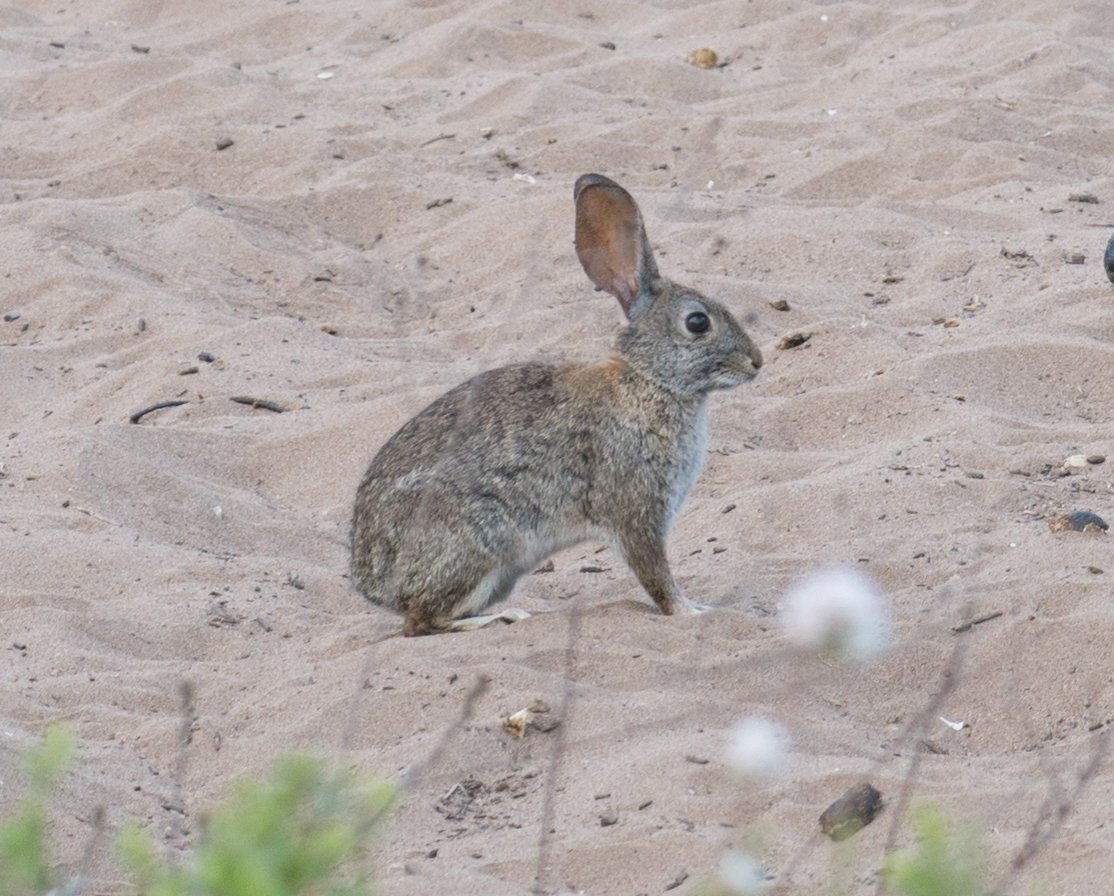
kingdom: Animalia
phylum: Chordata
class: Mammalia
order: Lagomorpha
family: Leporidae
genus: Sylvilagus
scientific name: Sylvilagus audubonii
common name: Desert cottontail
